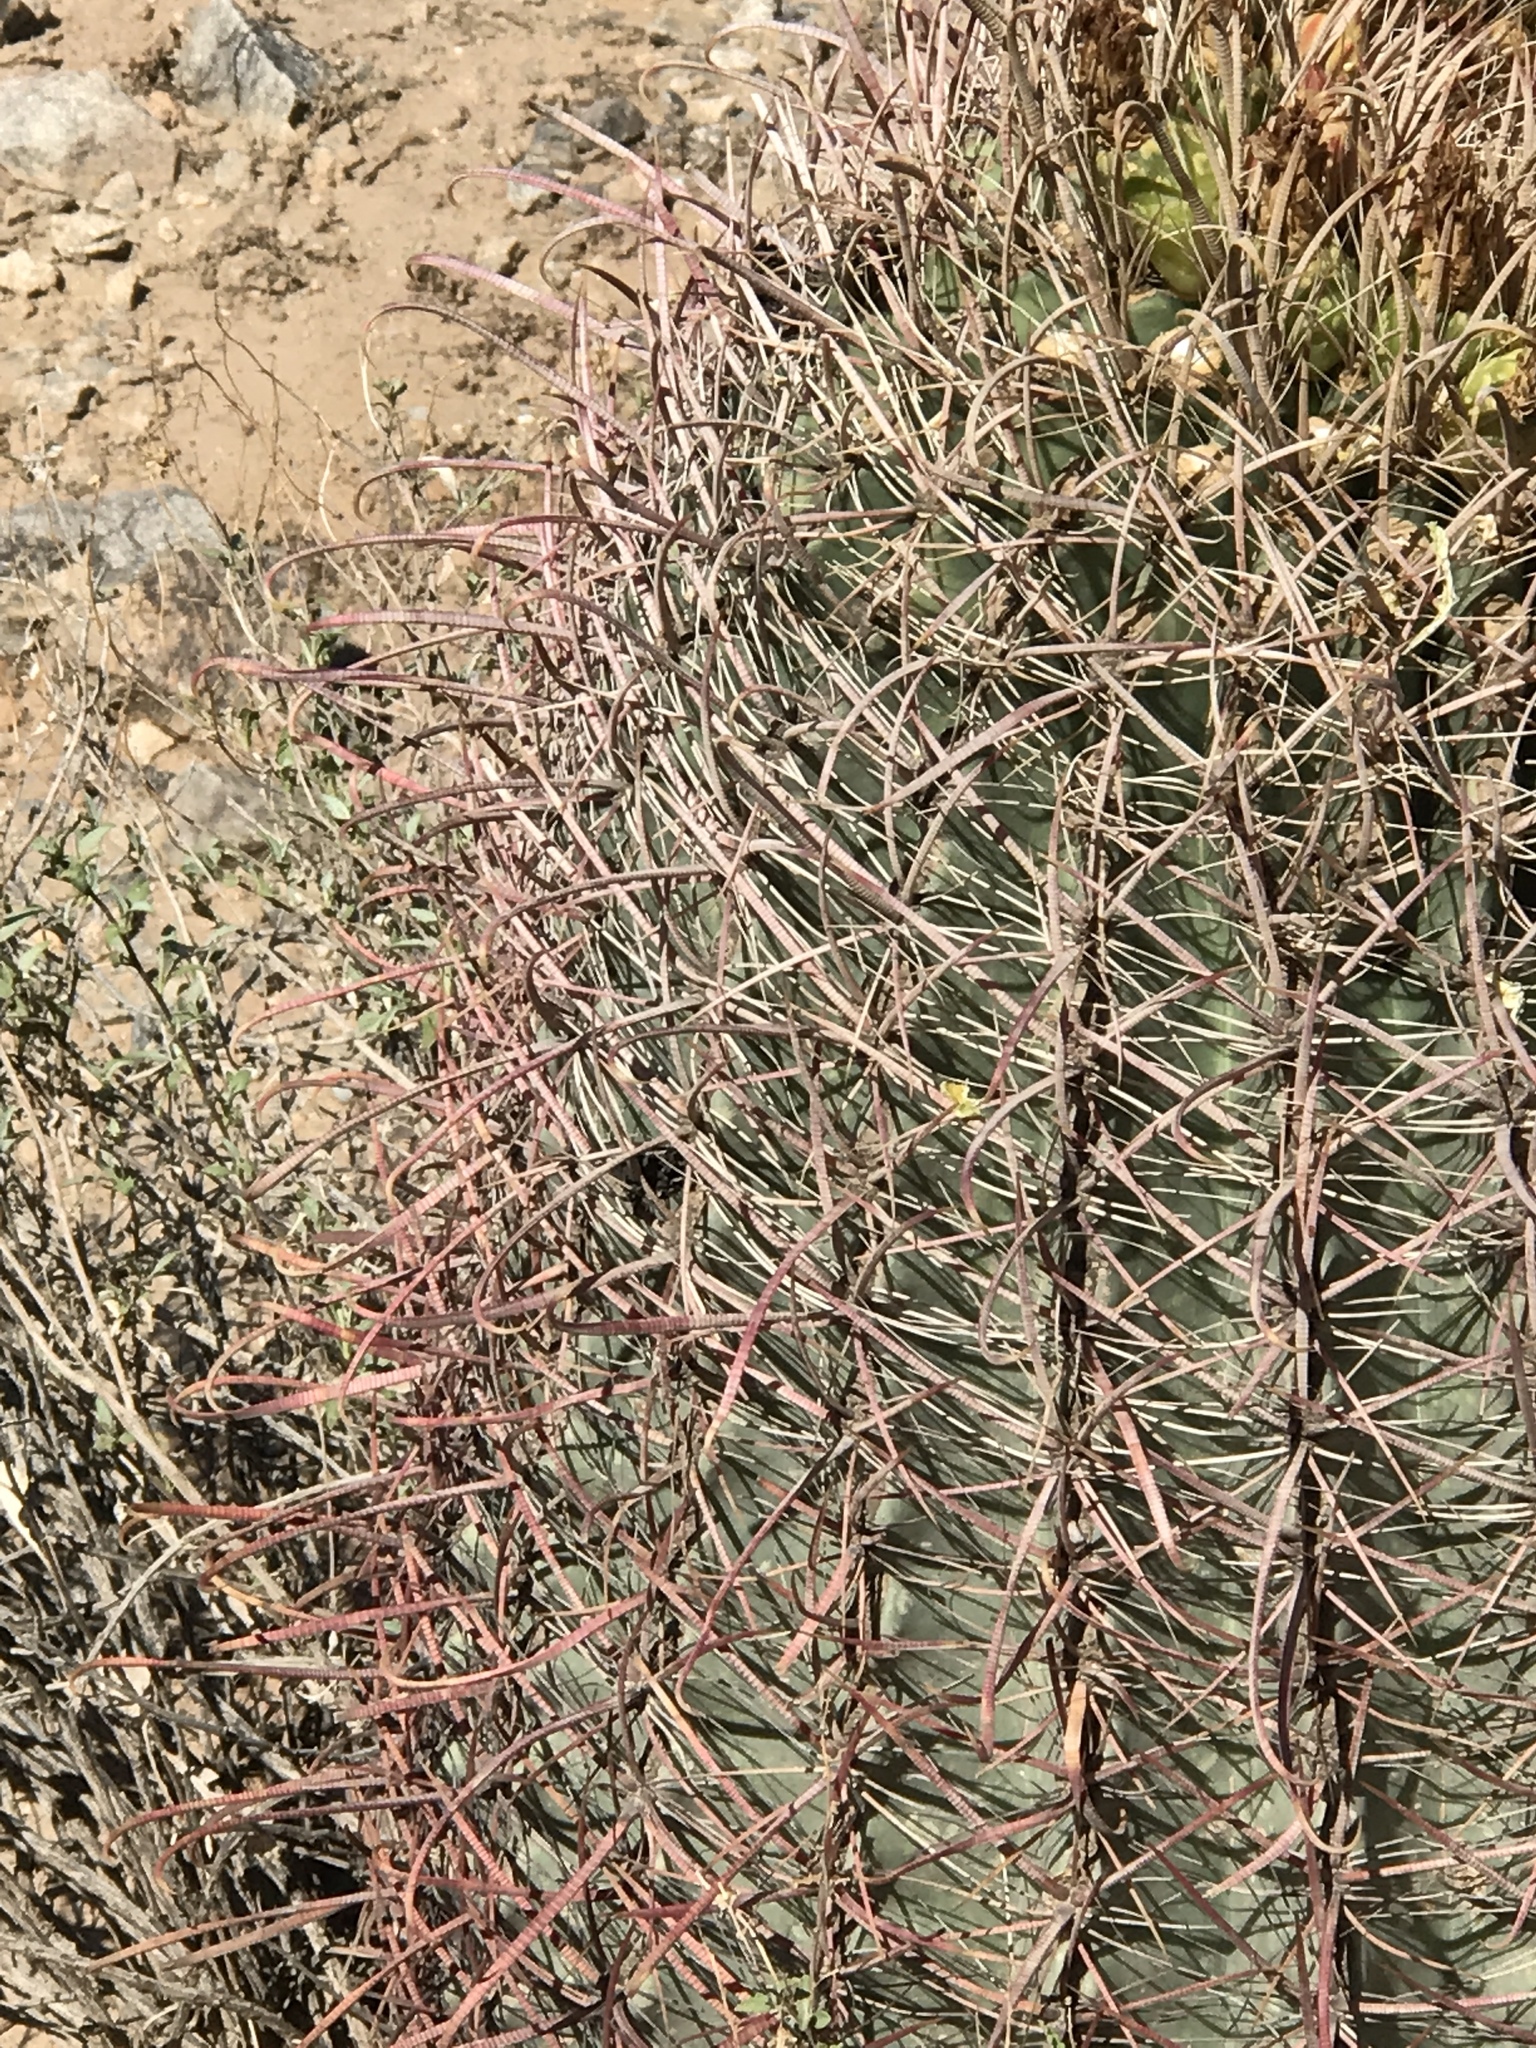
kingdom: Plantae
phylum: Tracheophyta
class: Magnoliopsida
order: Caryophyllales
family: Cactaceae
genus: Ferocactus
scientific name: Ferocactus cylindraceus
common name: California barrel cactus
